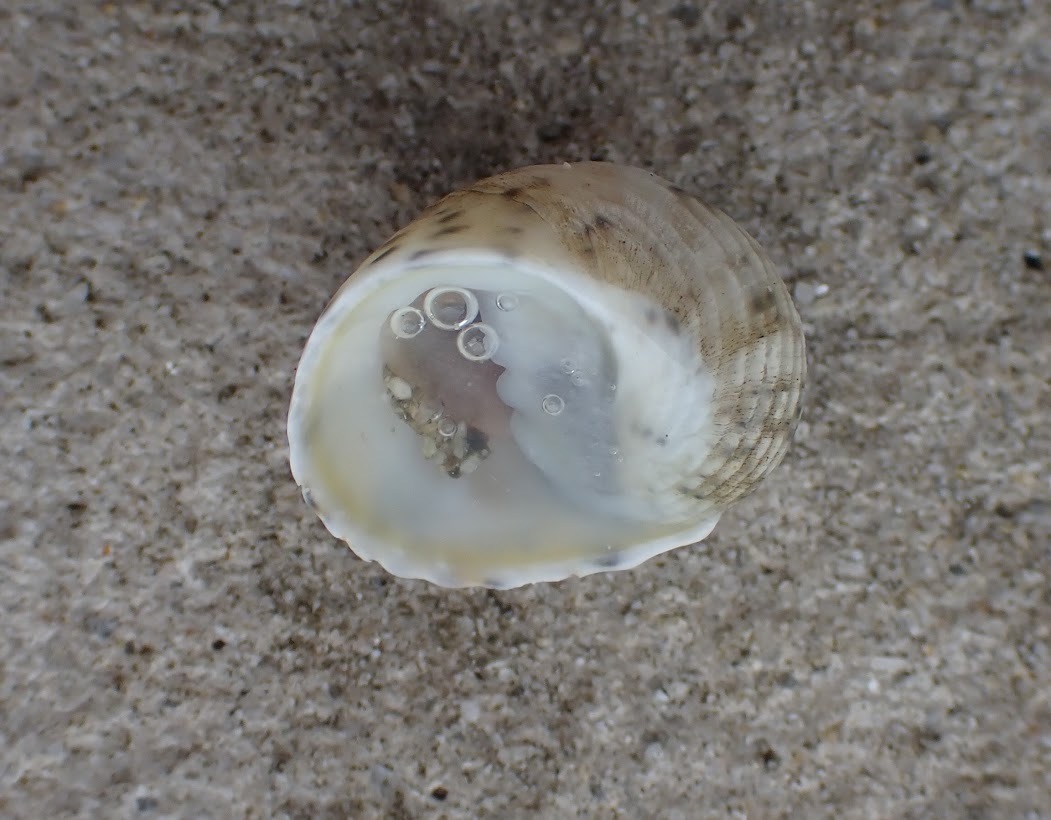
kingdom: Animalia
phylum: Mollusca
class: Gastropoda
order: Cycloneritida
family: Neritidae
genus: Nerita
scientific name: Nerita versicolor
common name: Four-tooth nerite
